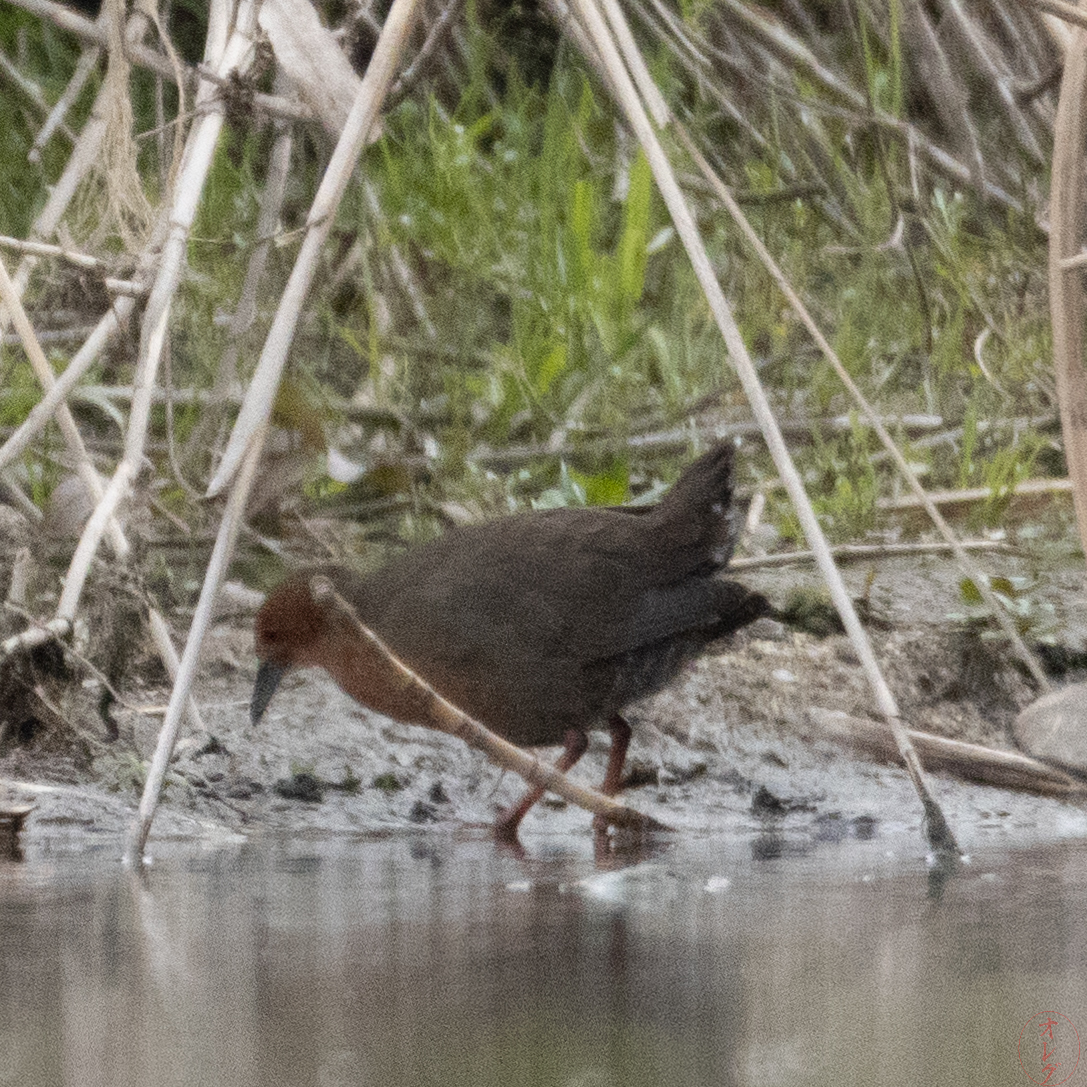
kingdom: Animalia
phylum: Chordata
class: Aves
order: Gruiformes
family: Rallidae
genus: Porzana
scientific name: Porzana fusca
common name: Ruddy-breasted crake
